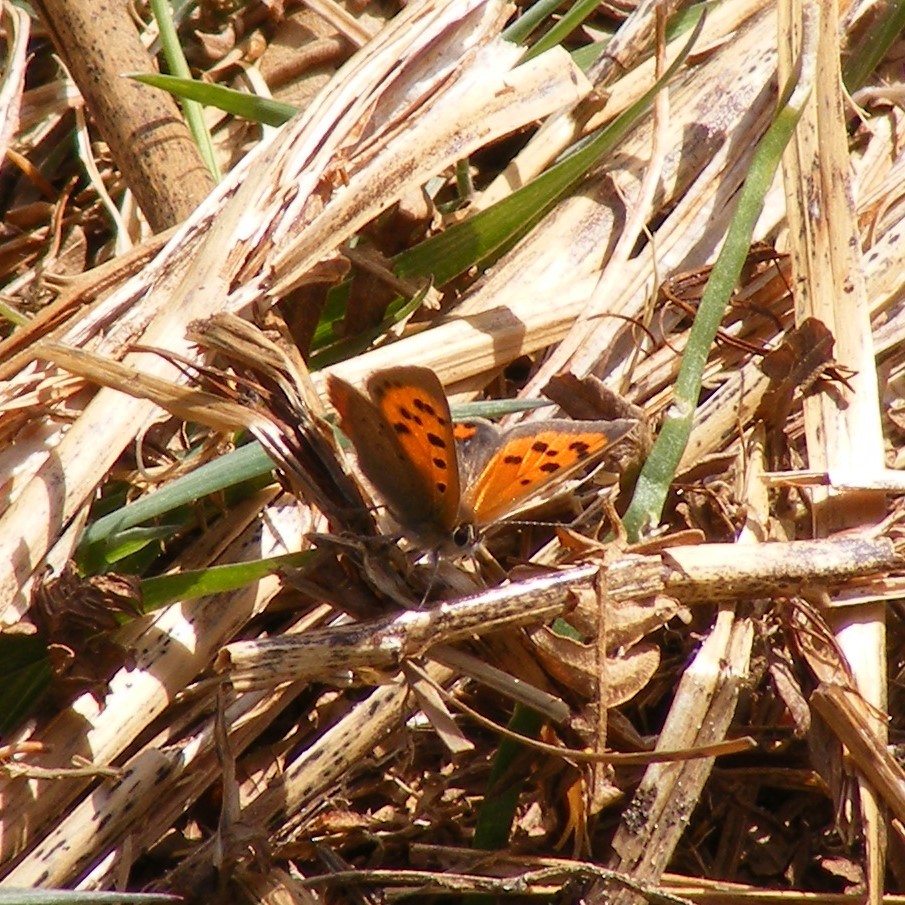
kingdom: Animalia
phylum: Arthropoda
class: Insecta
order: Lepidoptera
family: Lycaenidae
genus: Lycaena
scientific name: Lycaena phlaeas
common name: Small copper
